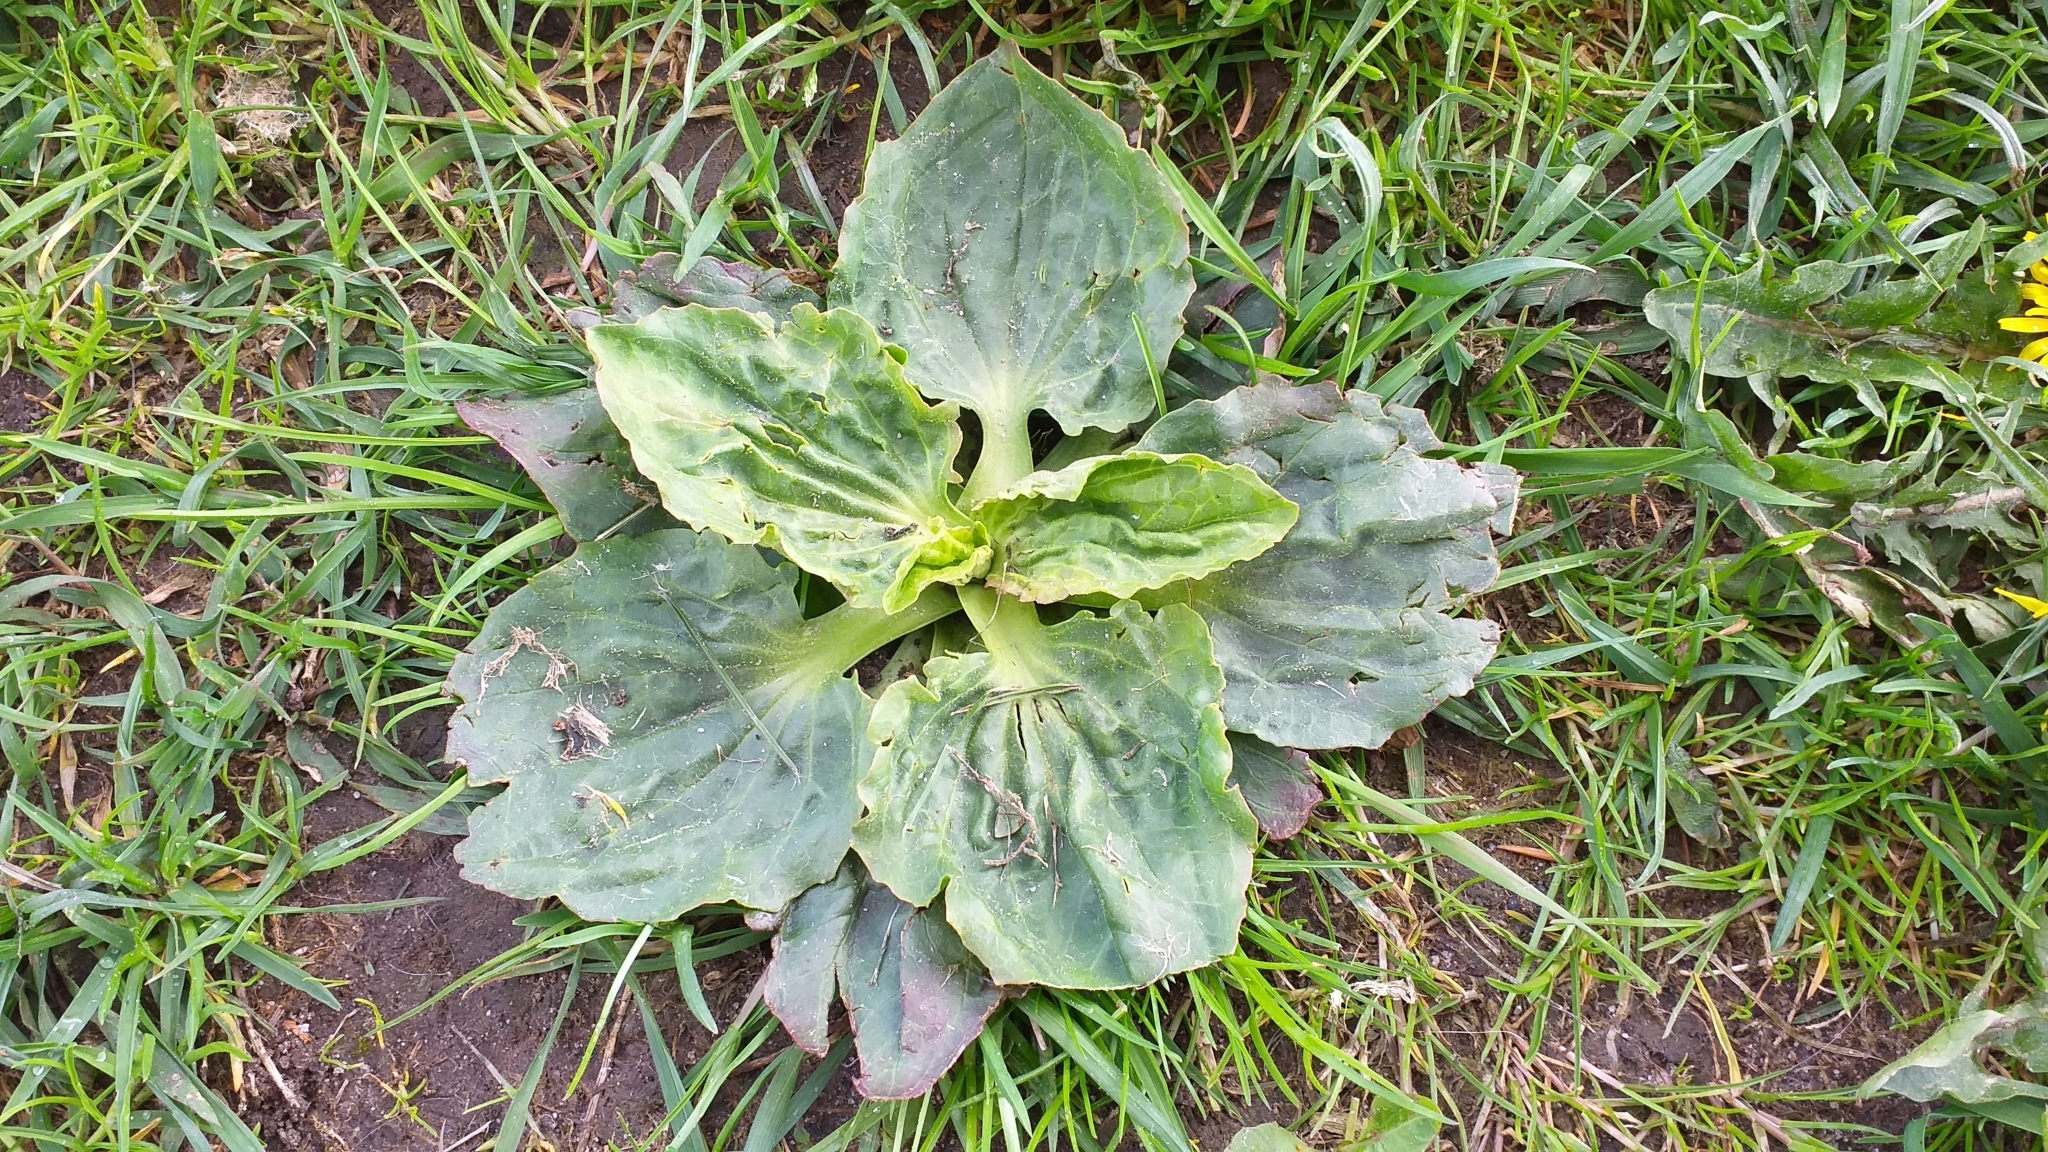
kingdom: Plantae
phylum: Tracheophyta
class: Magnoliopsida
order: Lamiales
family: Plantaginaceae
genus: Plantago
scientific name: Plantago major
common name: Common plantain
